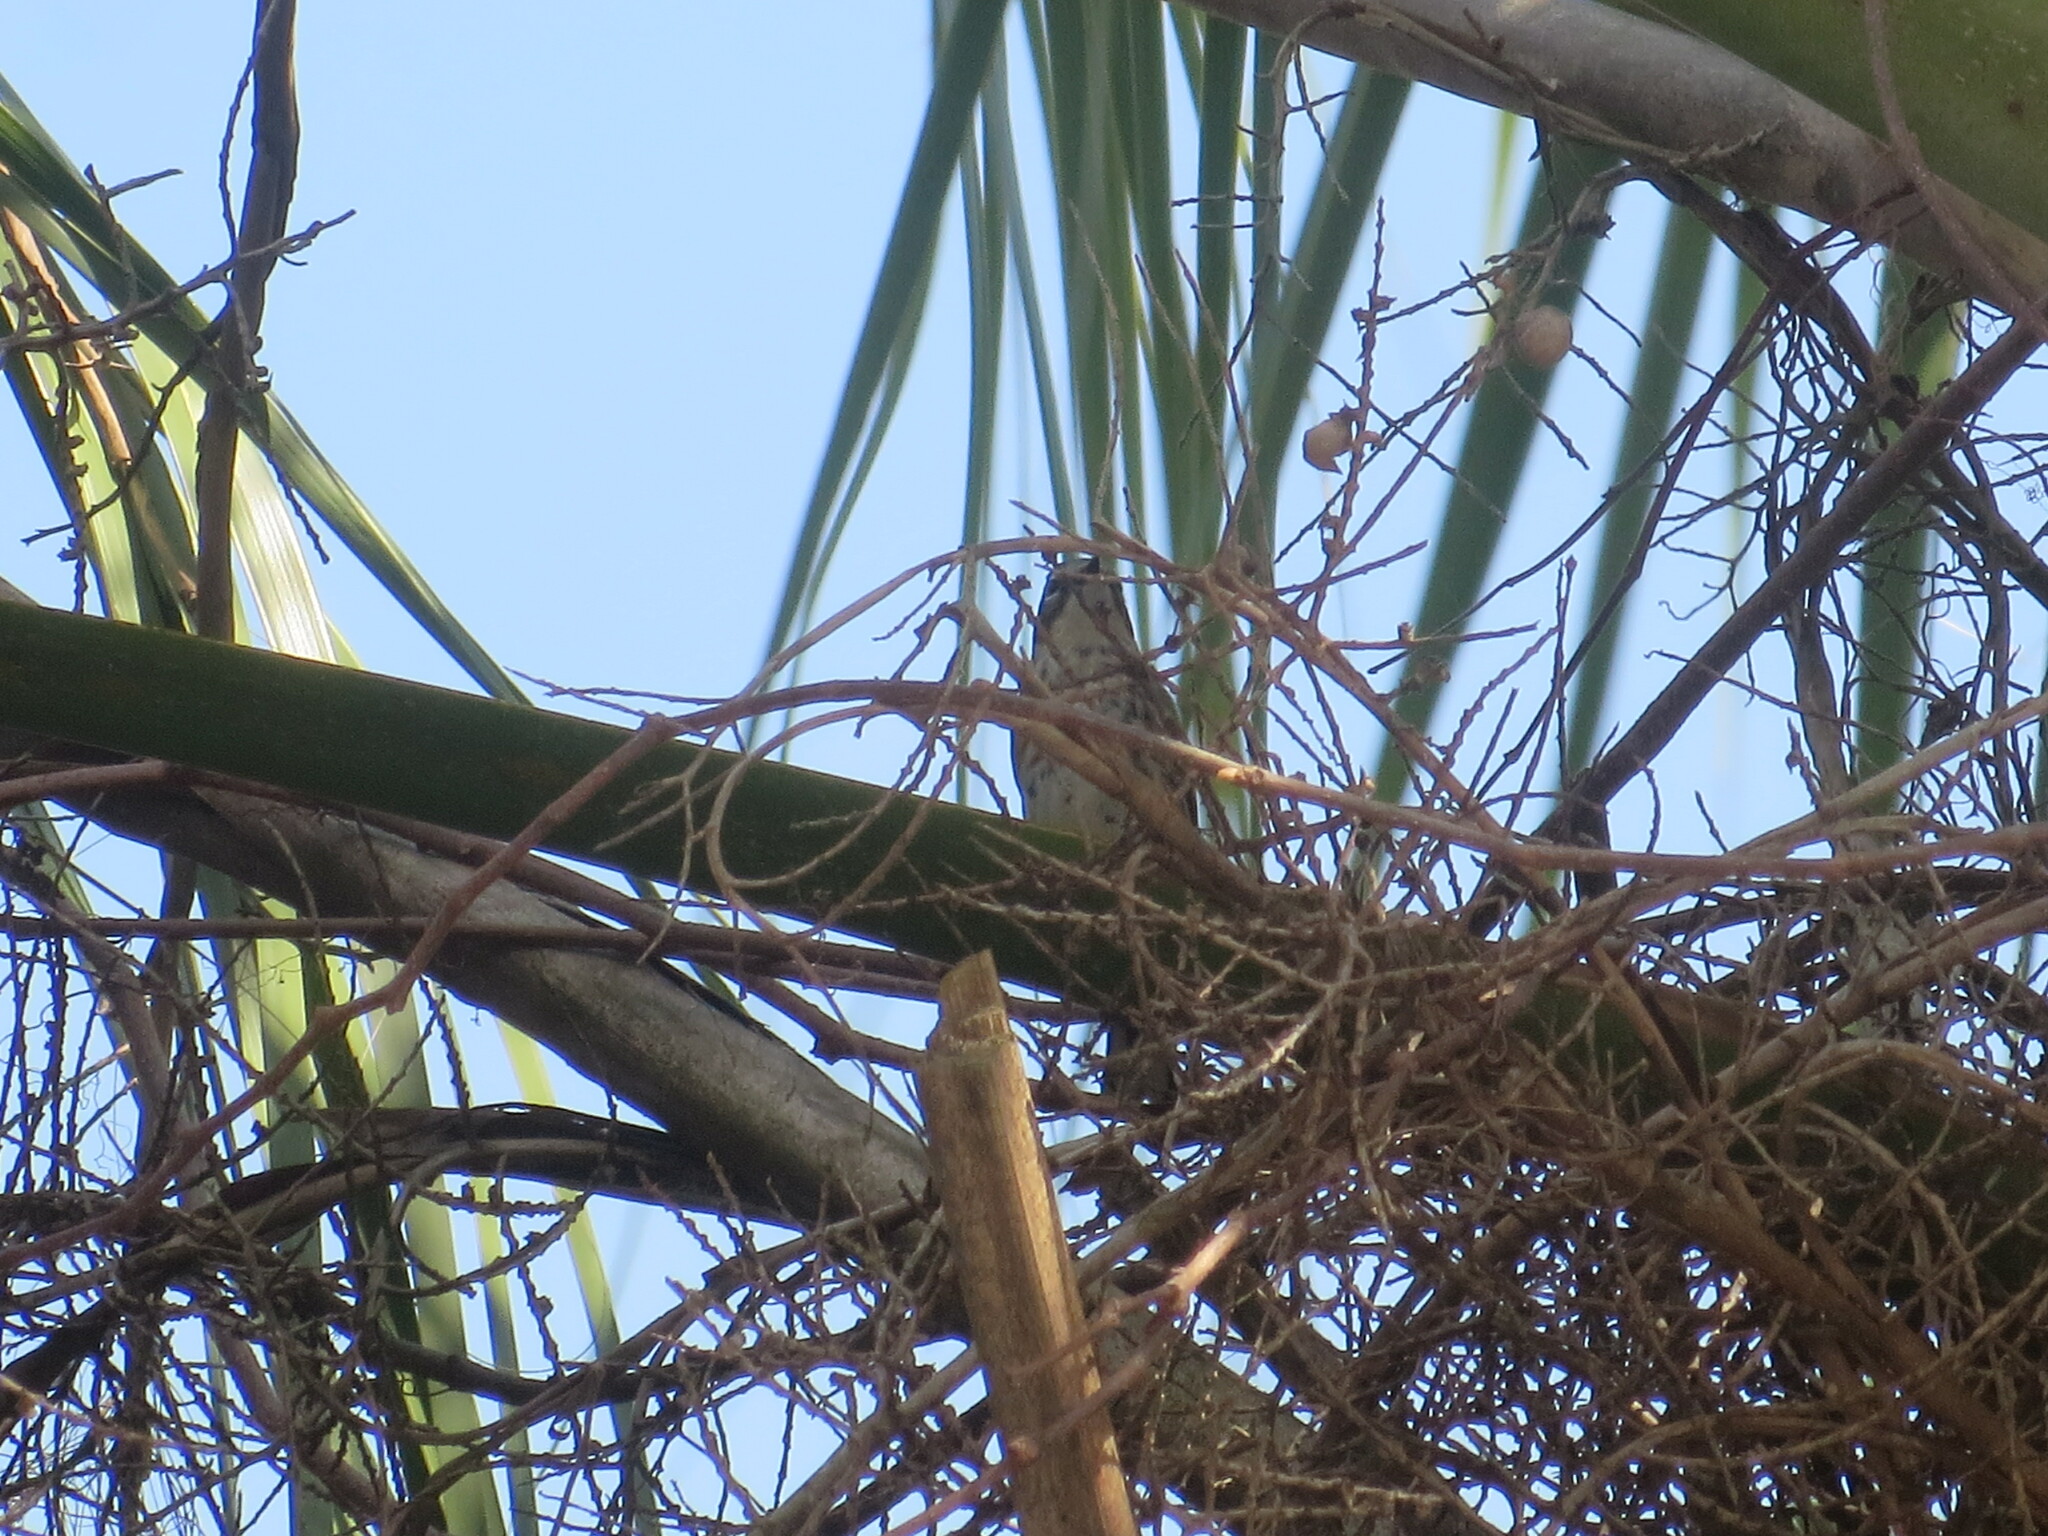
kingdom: Animalia
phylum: Chordata
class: Aves
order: Passeriformes
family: Parulidae
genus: Setophaga
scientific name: Setophaga coronata
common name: Myrtle warbler
